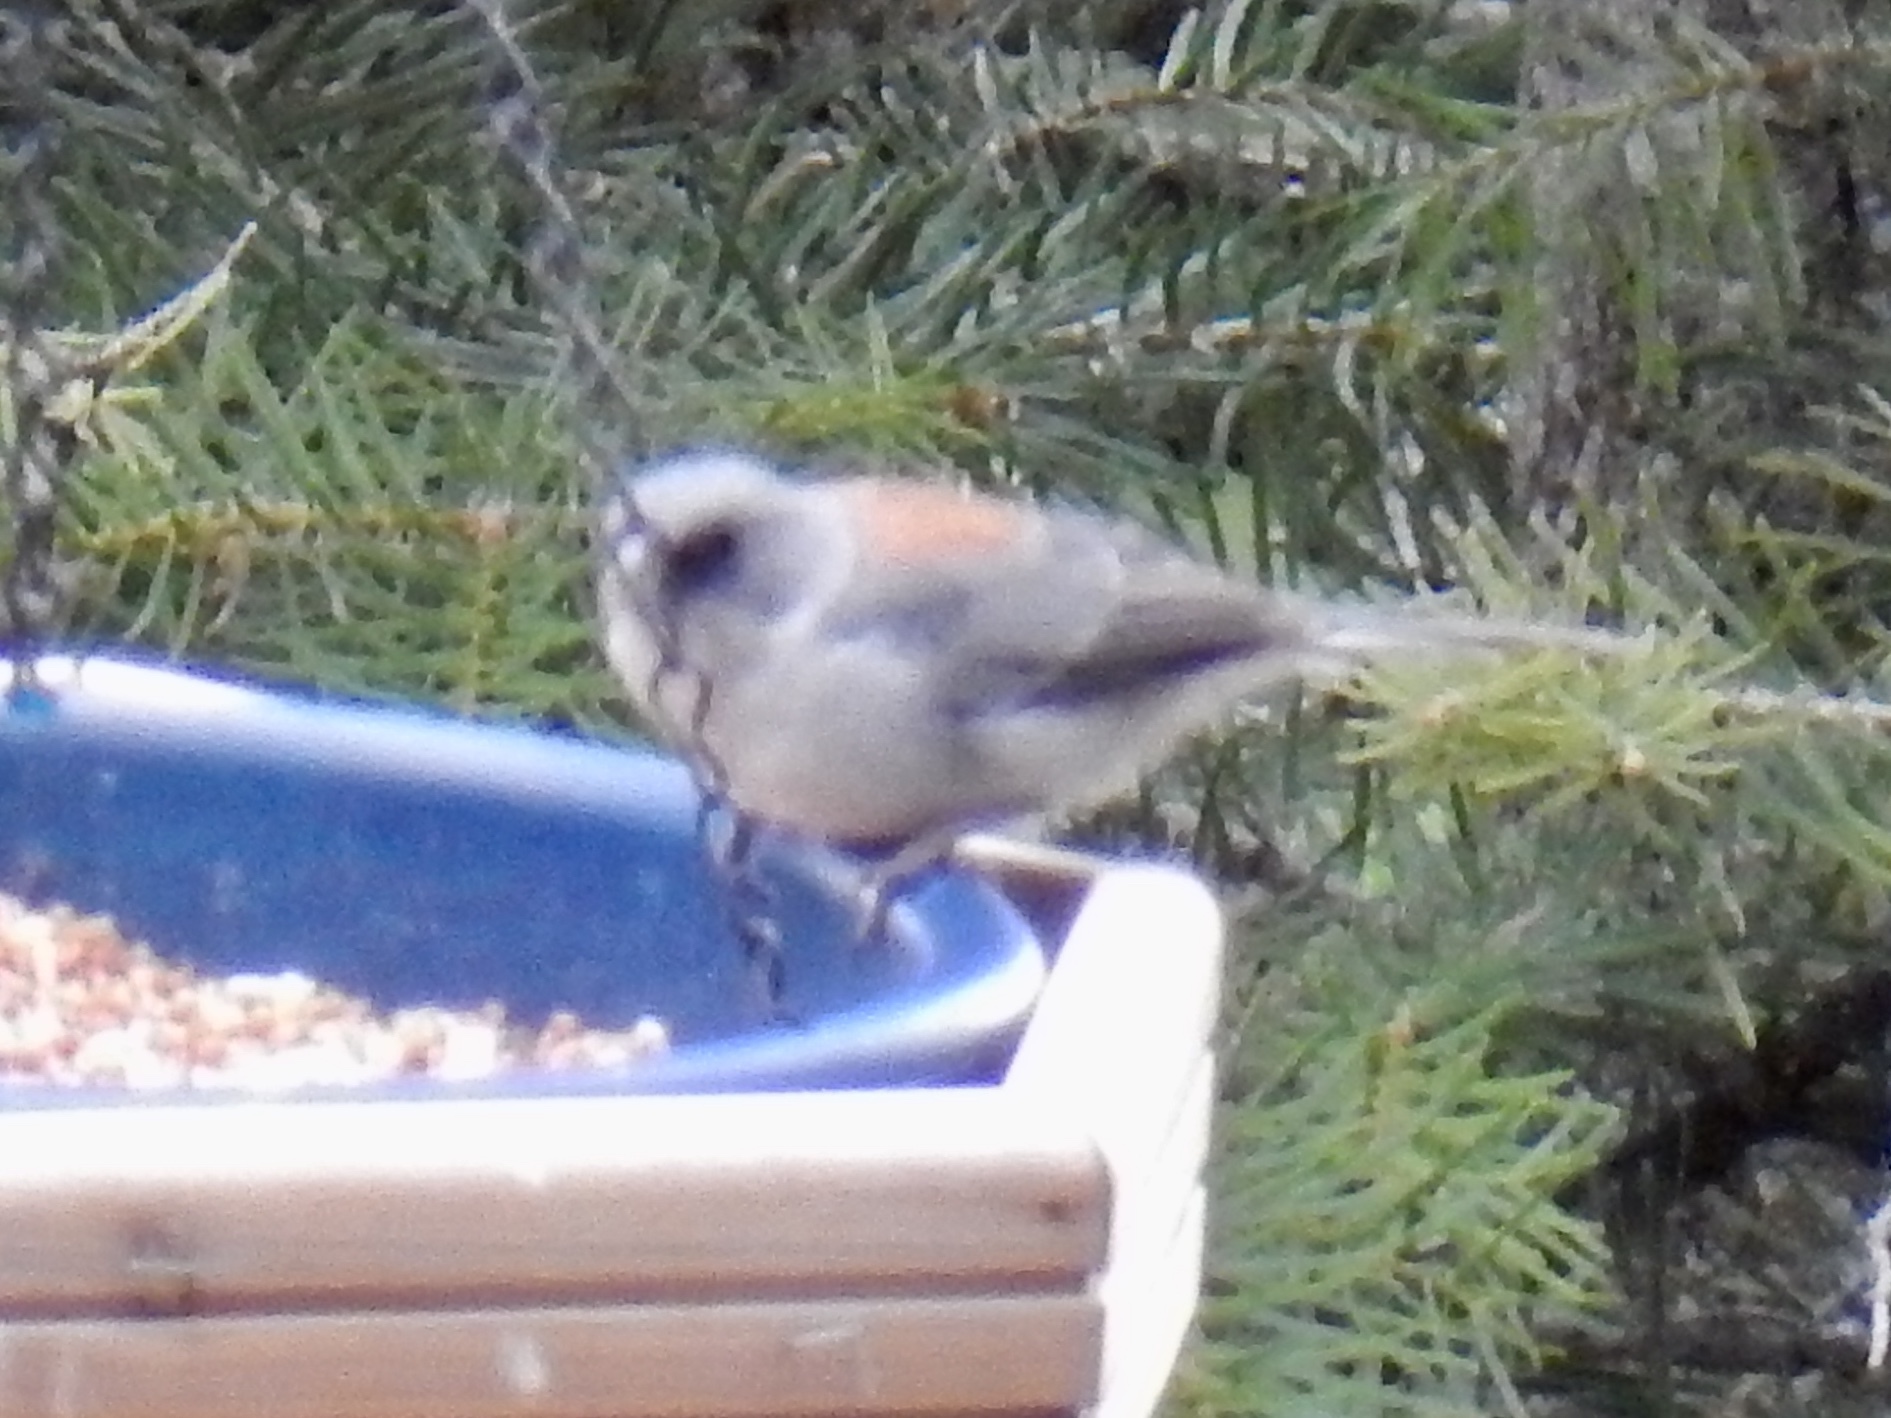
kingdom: Animalia
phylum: Chordata
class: Aves
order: Passeriformes
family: Passerellidae
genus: Junco
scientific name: Junco hyemalis
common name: Dark-eyed junco
